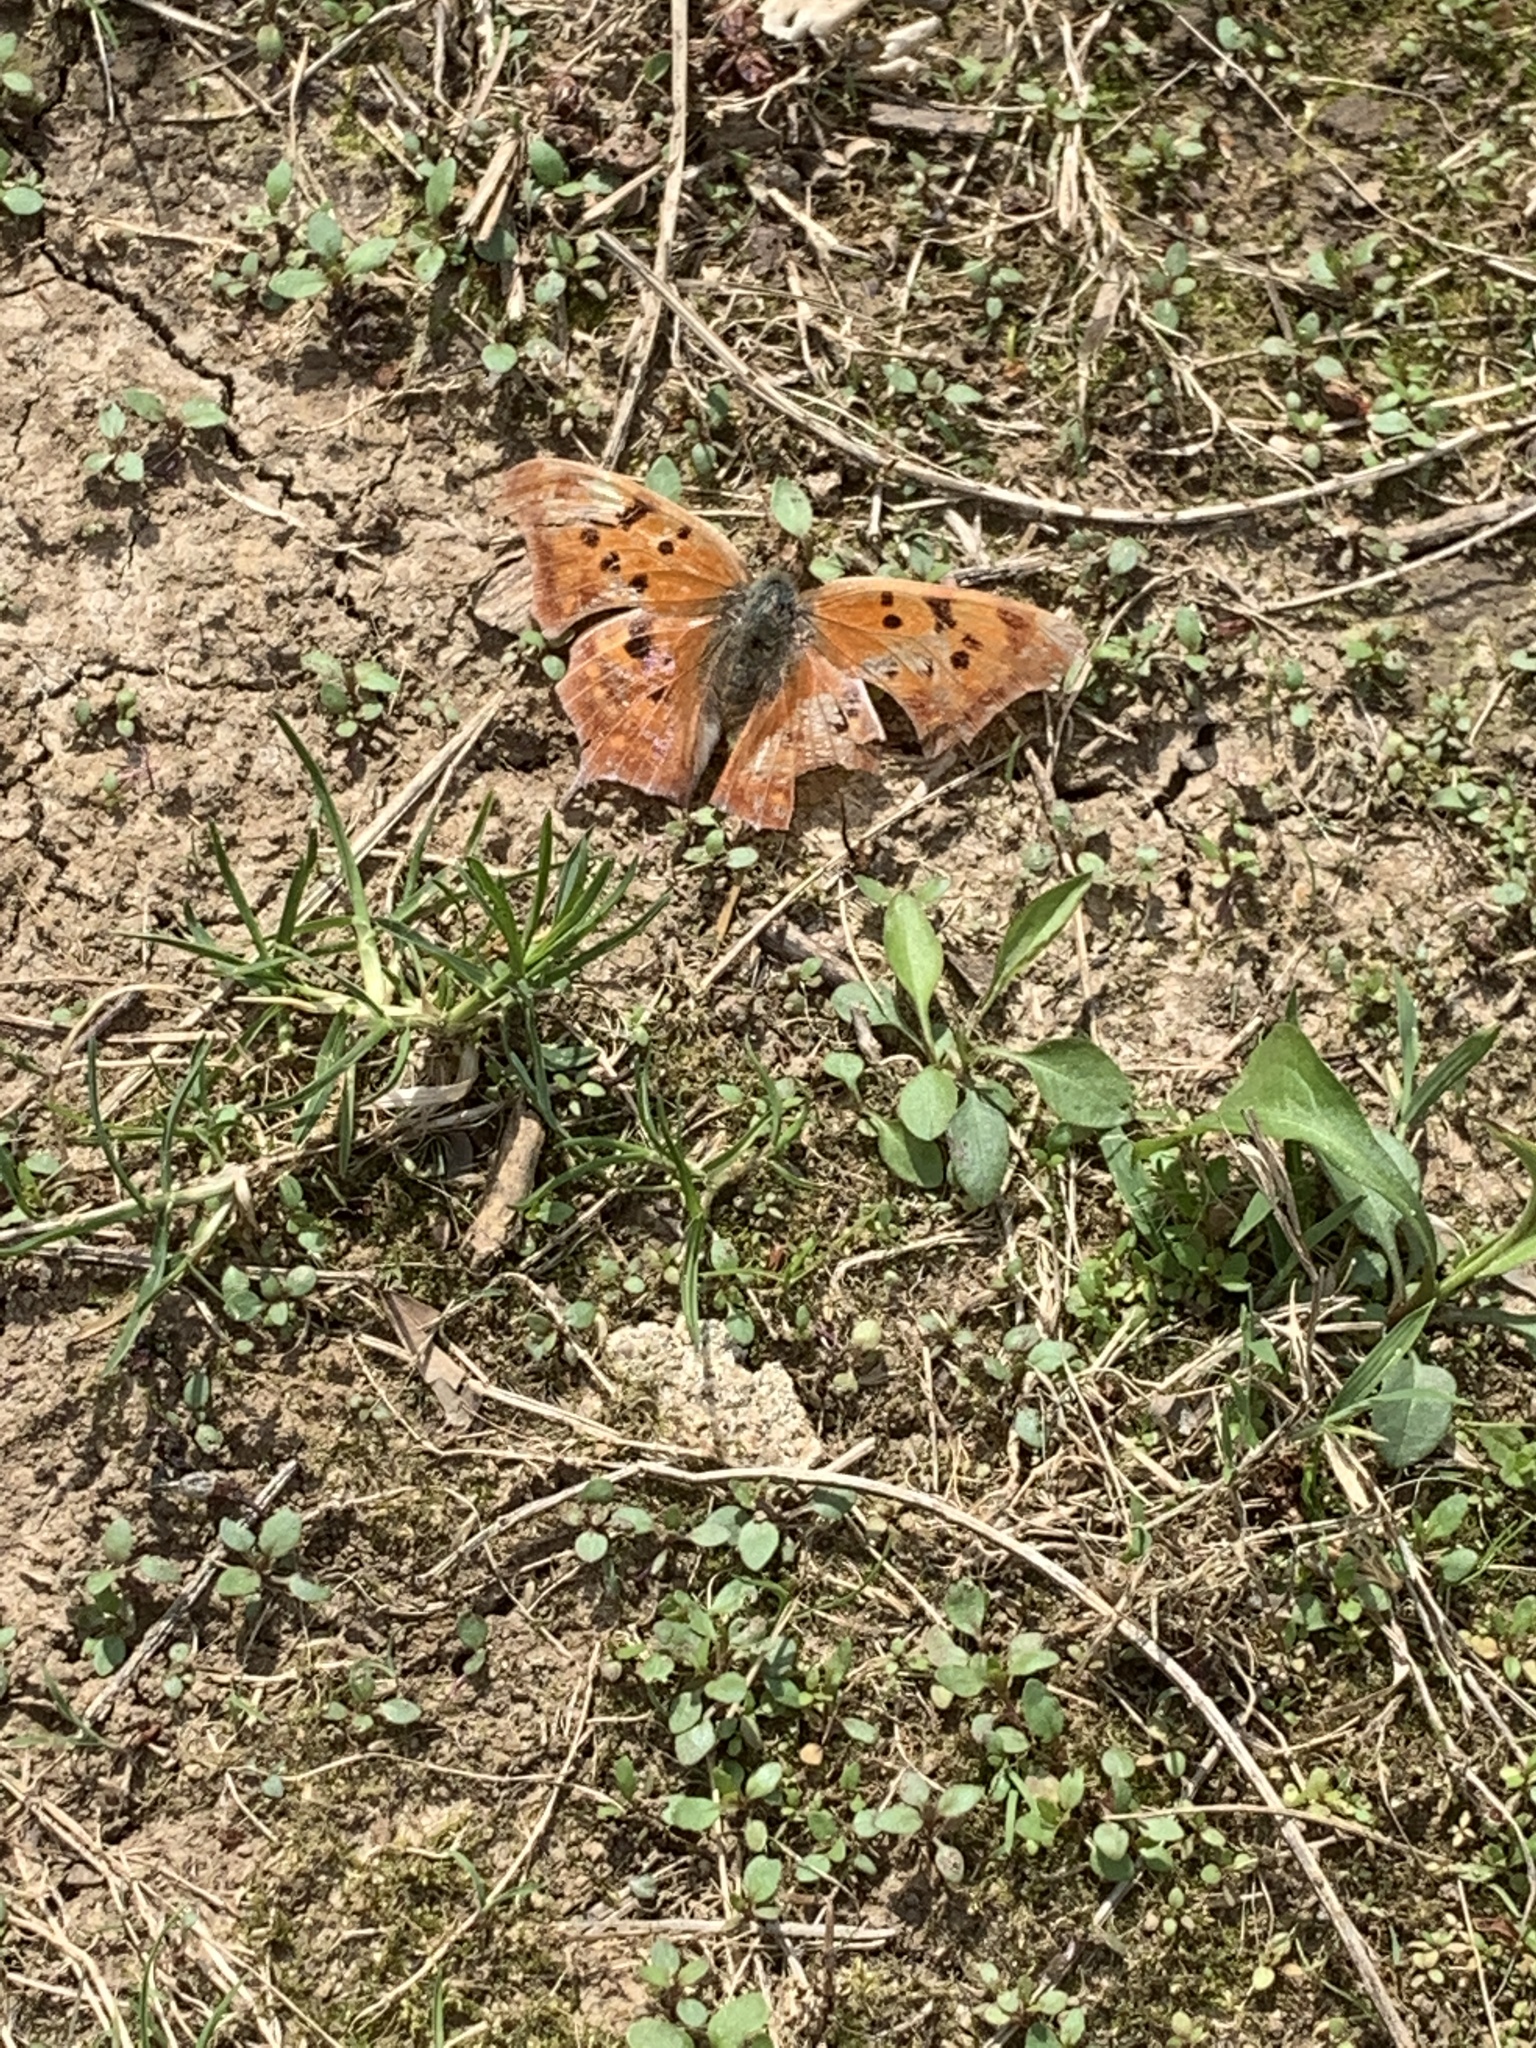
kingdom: Animalia
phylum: Arthropoda
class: Insecta
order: Lepidoptera
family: Nymphalidae
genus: Polygonia
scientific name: Polygonia interrogationis
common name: Question mark
